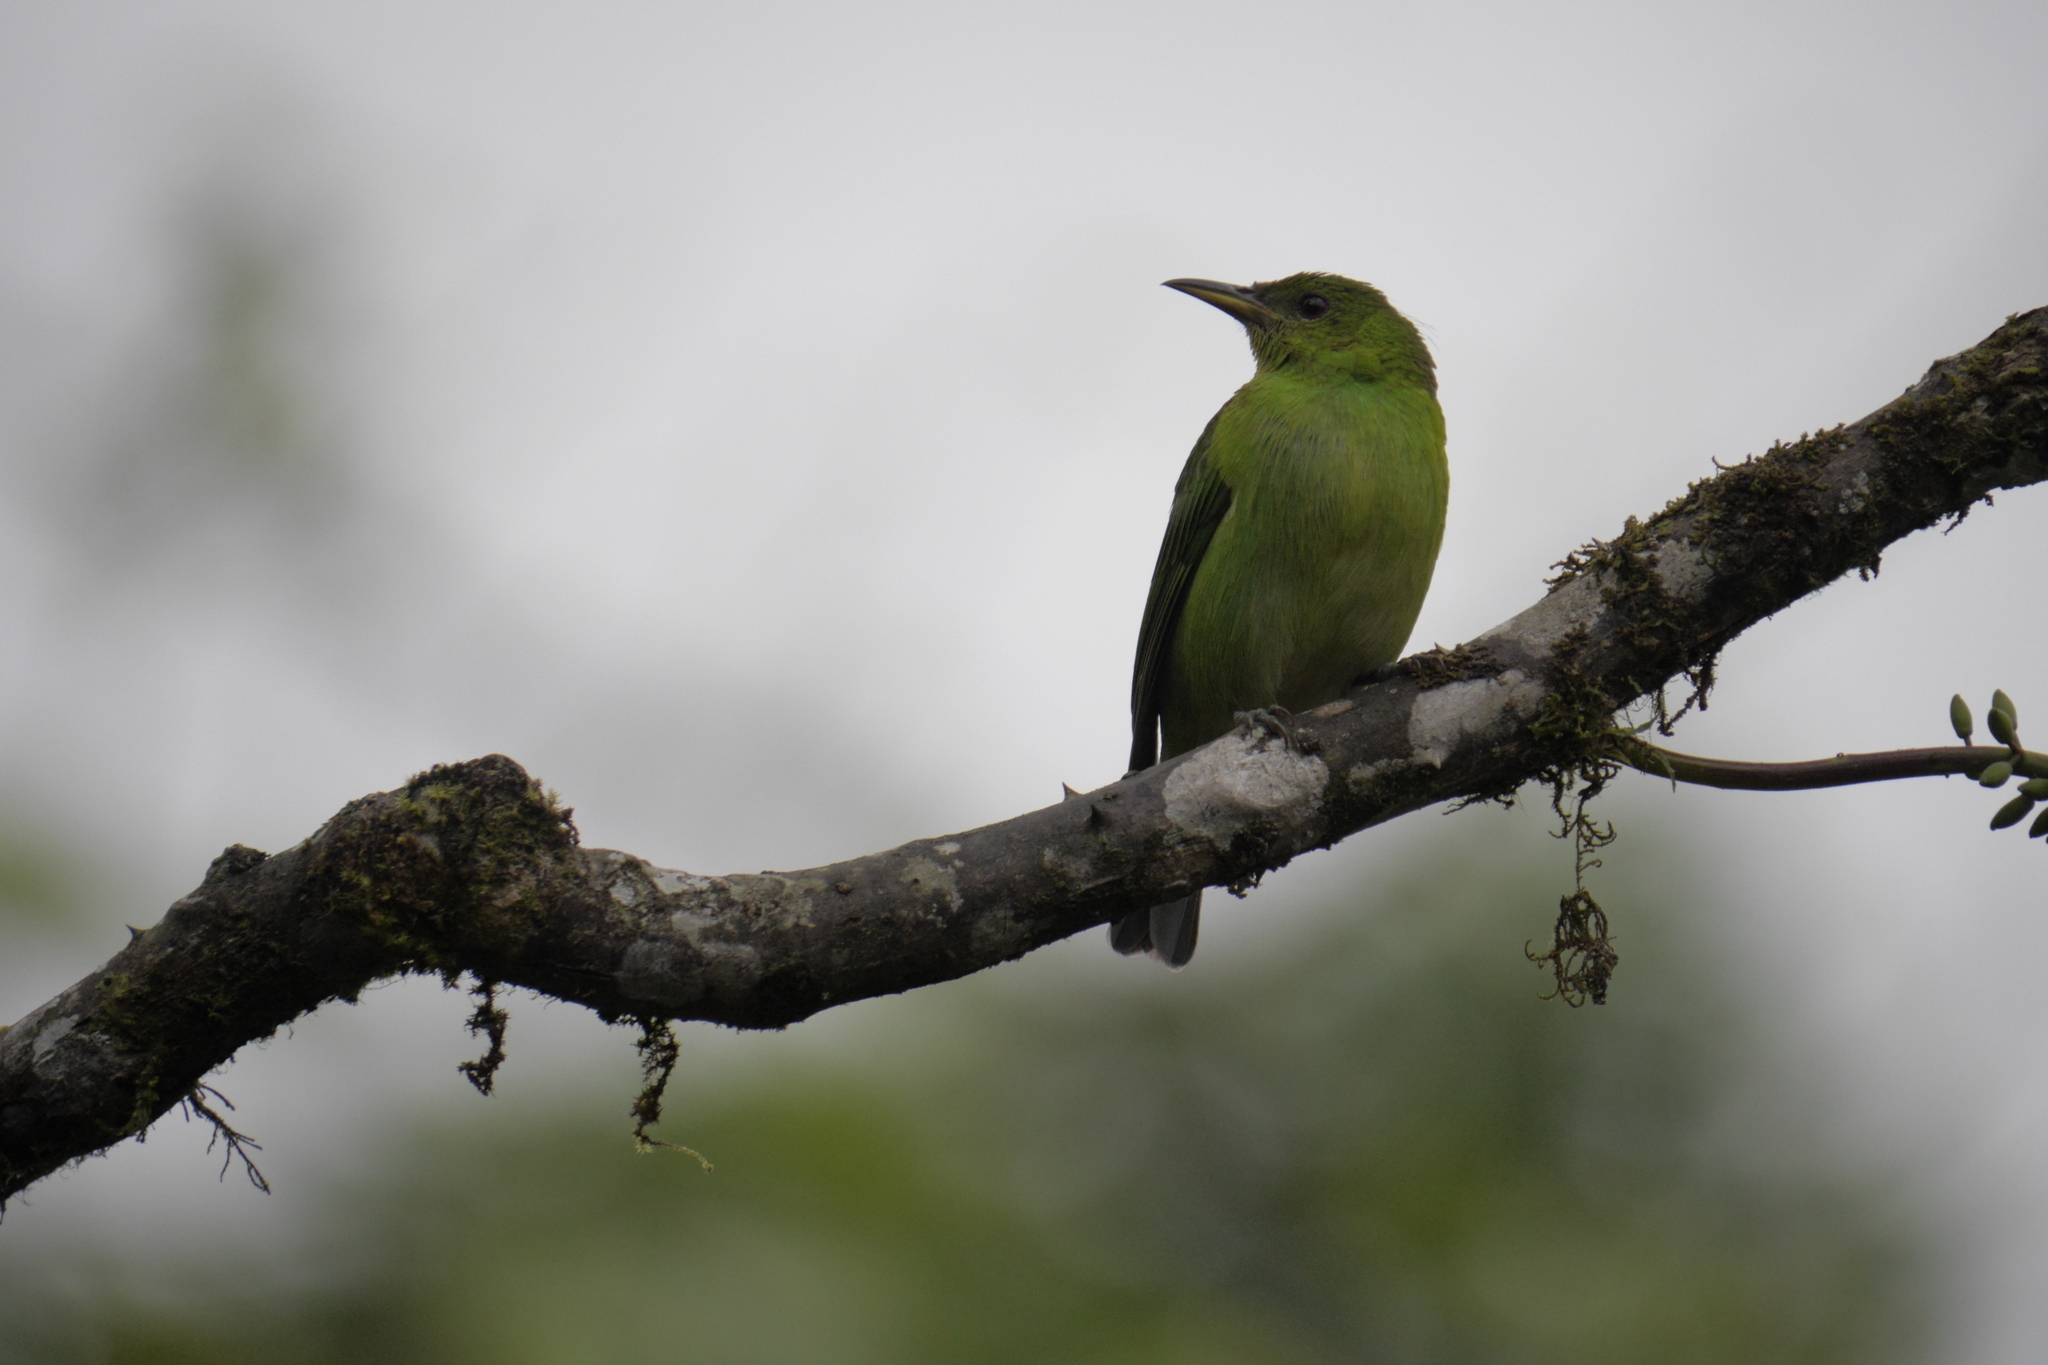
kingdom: Animalia
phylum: Chordata
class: Aves
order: Passeriformes
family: Thraupidae
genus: Chlorophanes
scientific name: Chlorophanes spiza
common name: Green honeycreeper
